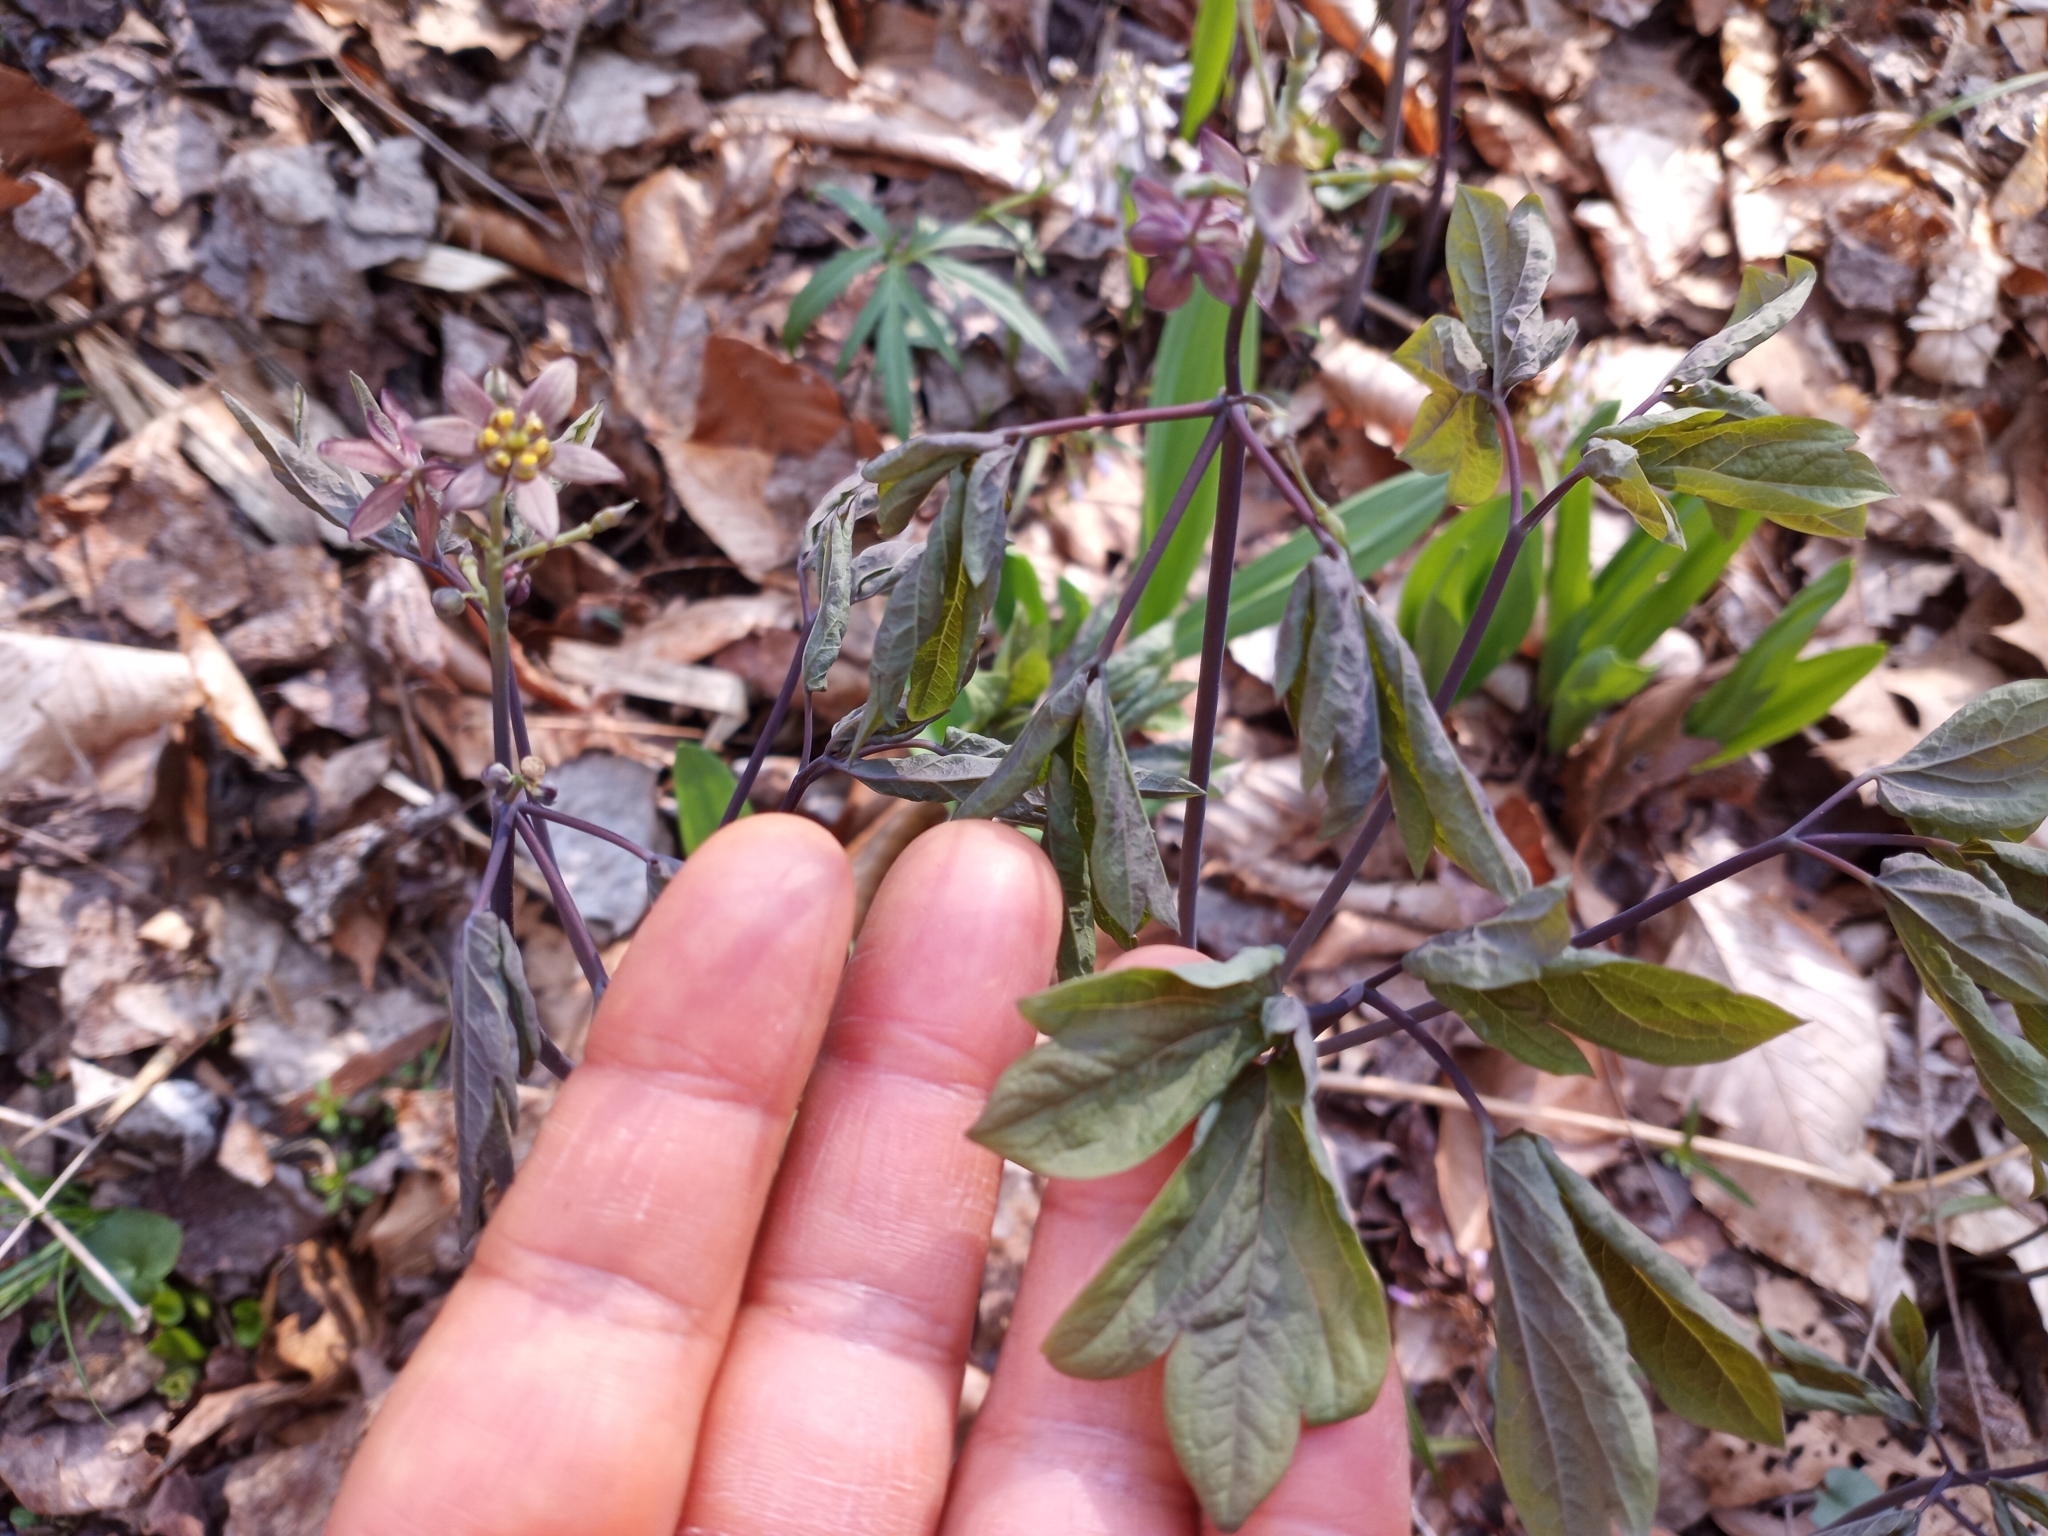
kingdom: Plantae
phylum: Tracheophyta
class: Magnoliopsida
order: Ranunculales
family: Berberidaceae
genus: Caulophyllum
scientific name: Caulophyllum giganteum
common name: Blue cohosh
